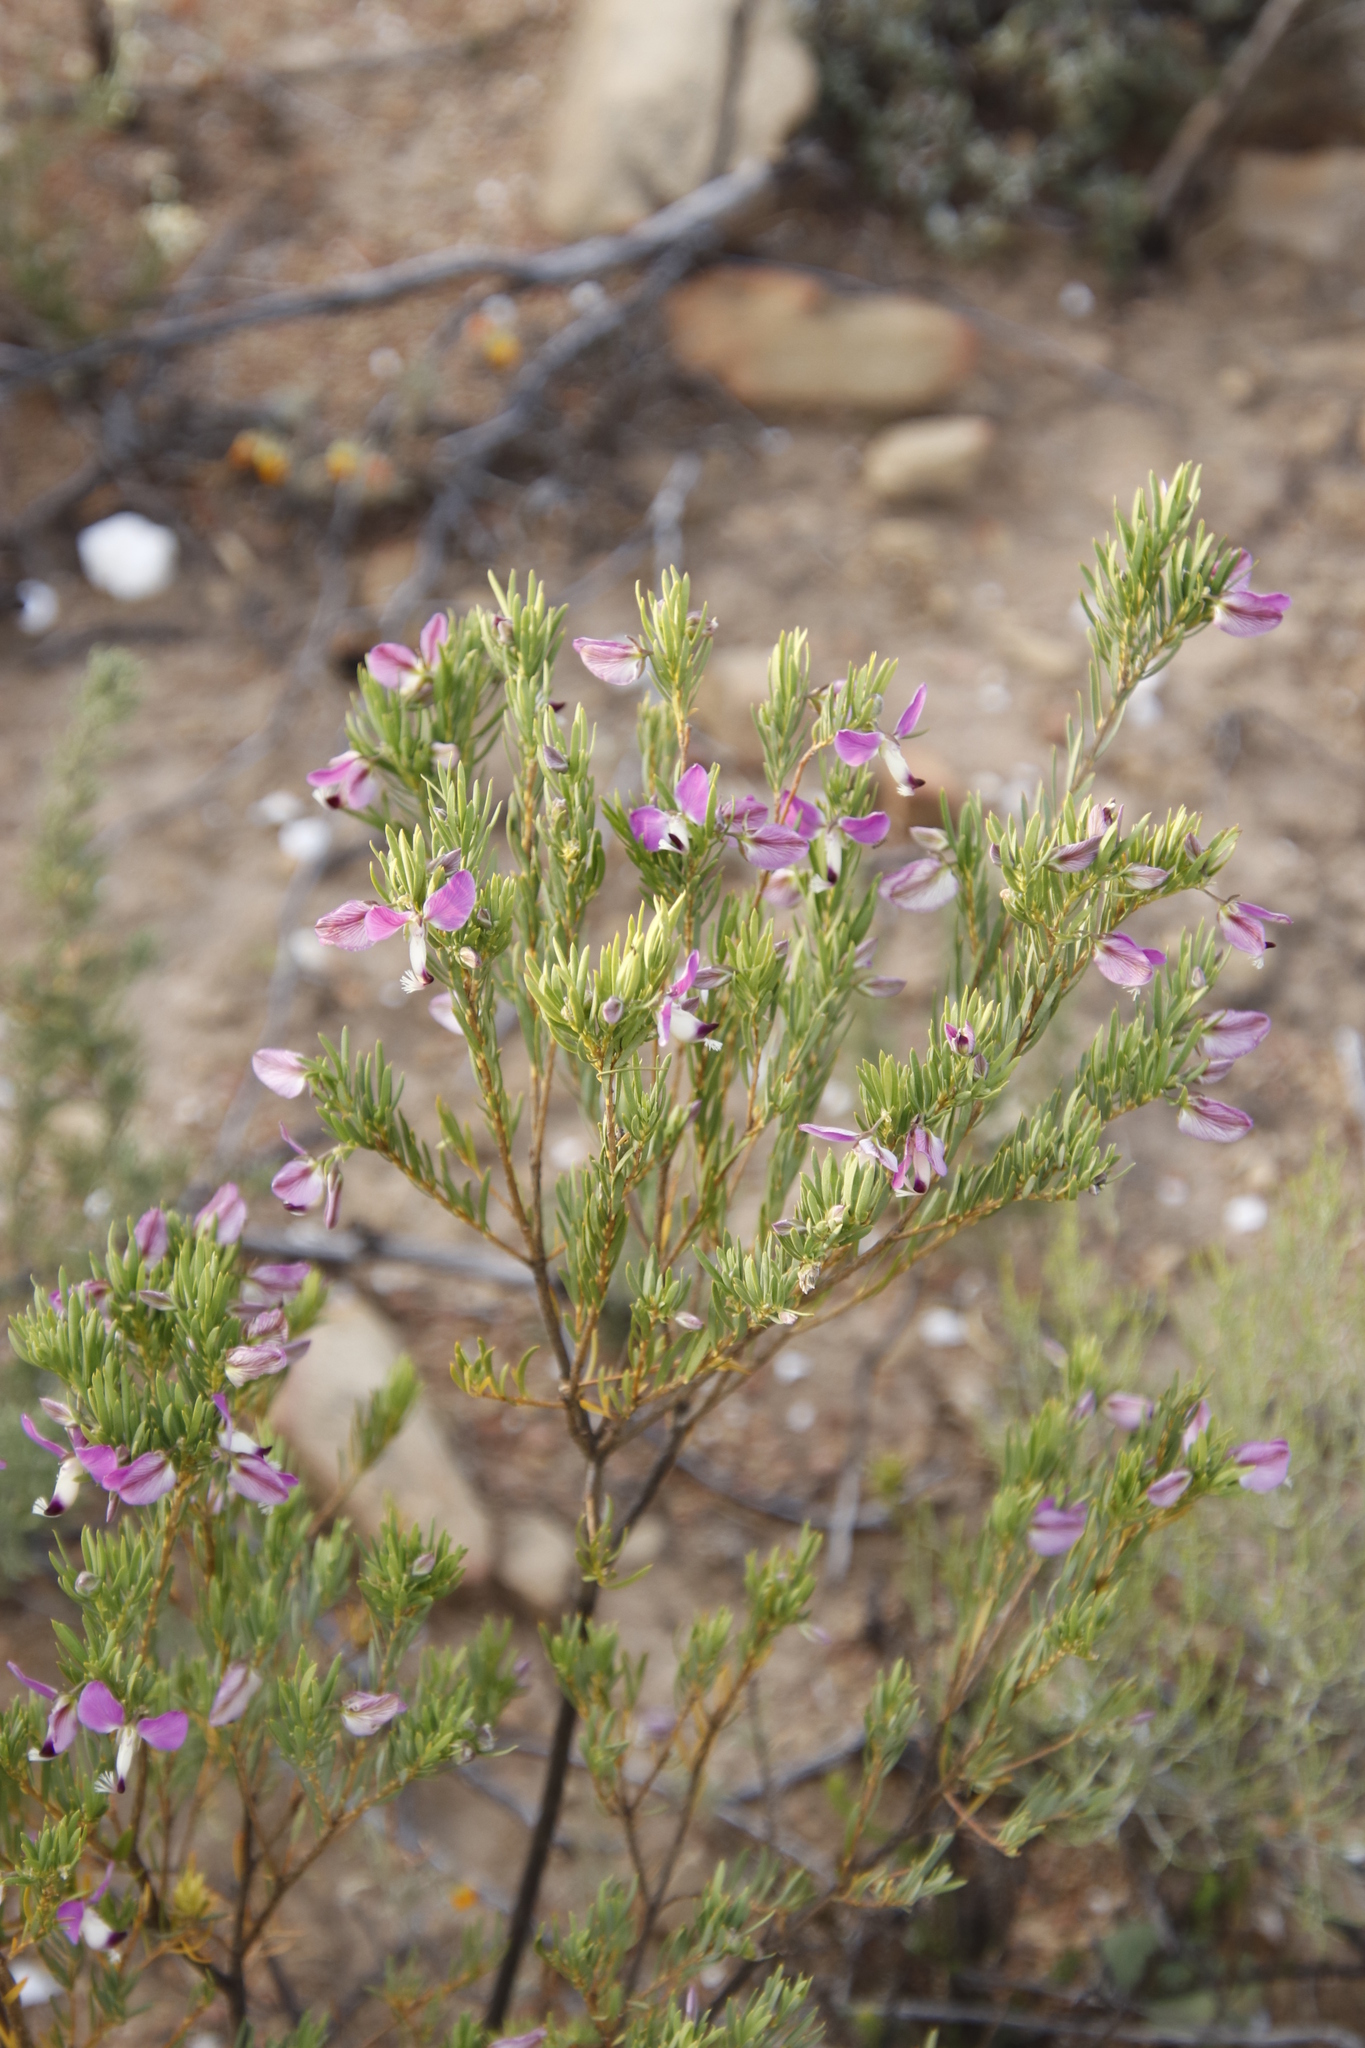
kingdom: Plantae
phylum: Tracheophyta
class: Magnoliopsida
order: Fabales
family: Polygalaceae
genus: Polygala
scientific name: Polygala myrtifolia
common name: Myrtle-leaf milkwort
